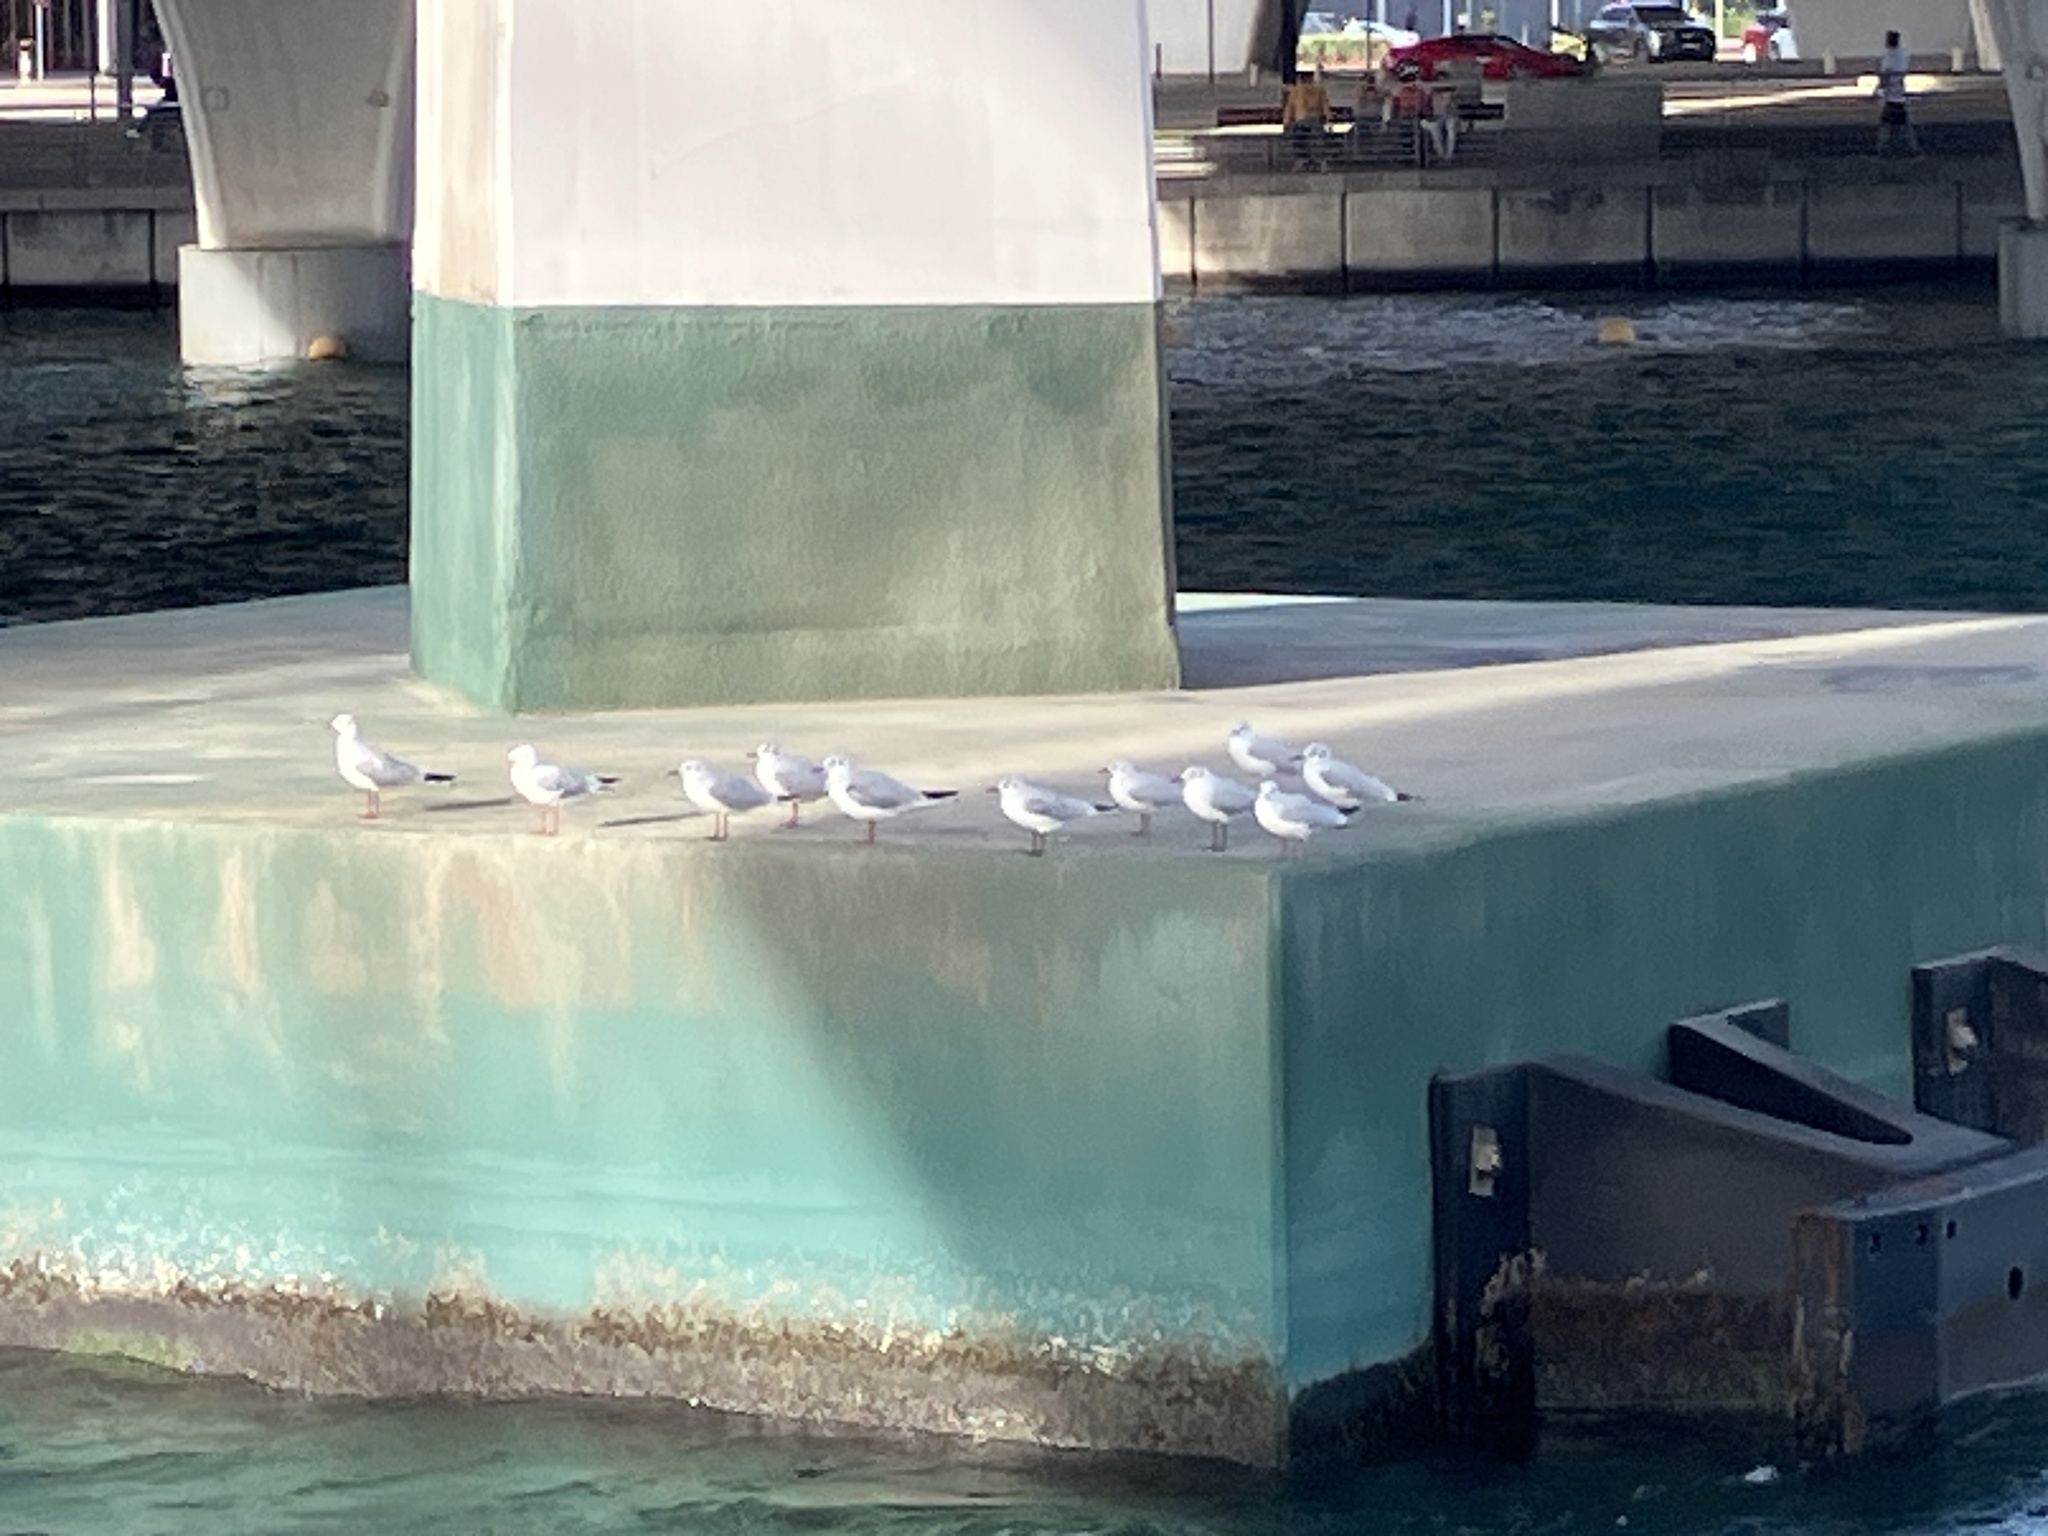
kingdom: Animalia
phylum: Chordata
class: Aves
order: Charadriiformes
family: Laridae
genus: Chroicocephalus
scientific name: Chroicocephalus ridibundus
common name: Black-headed gull
